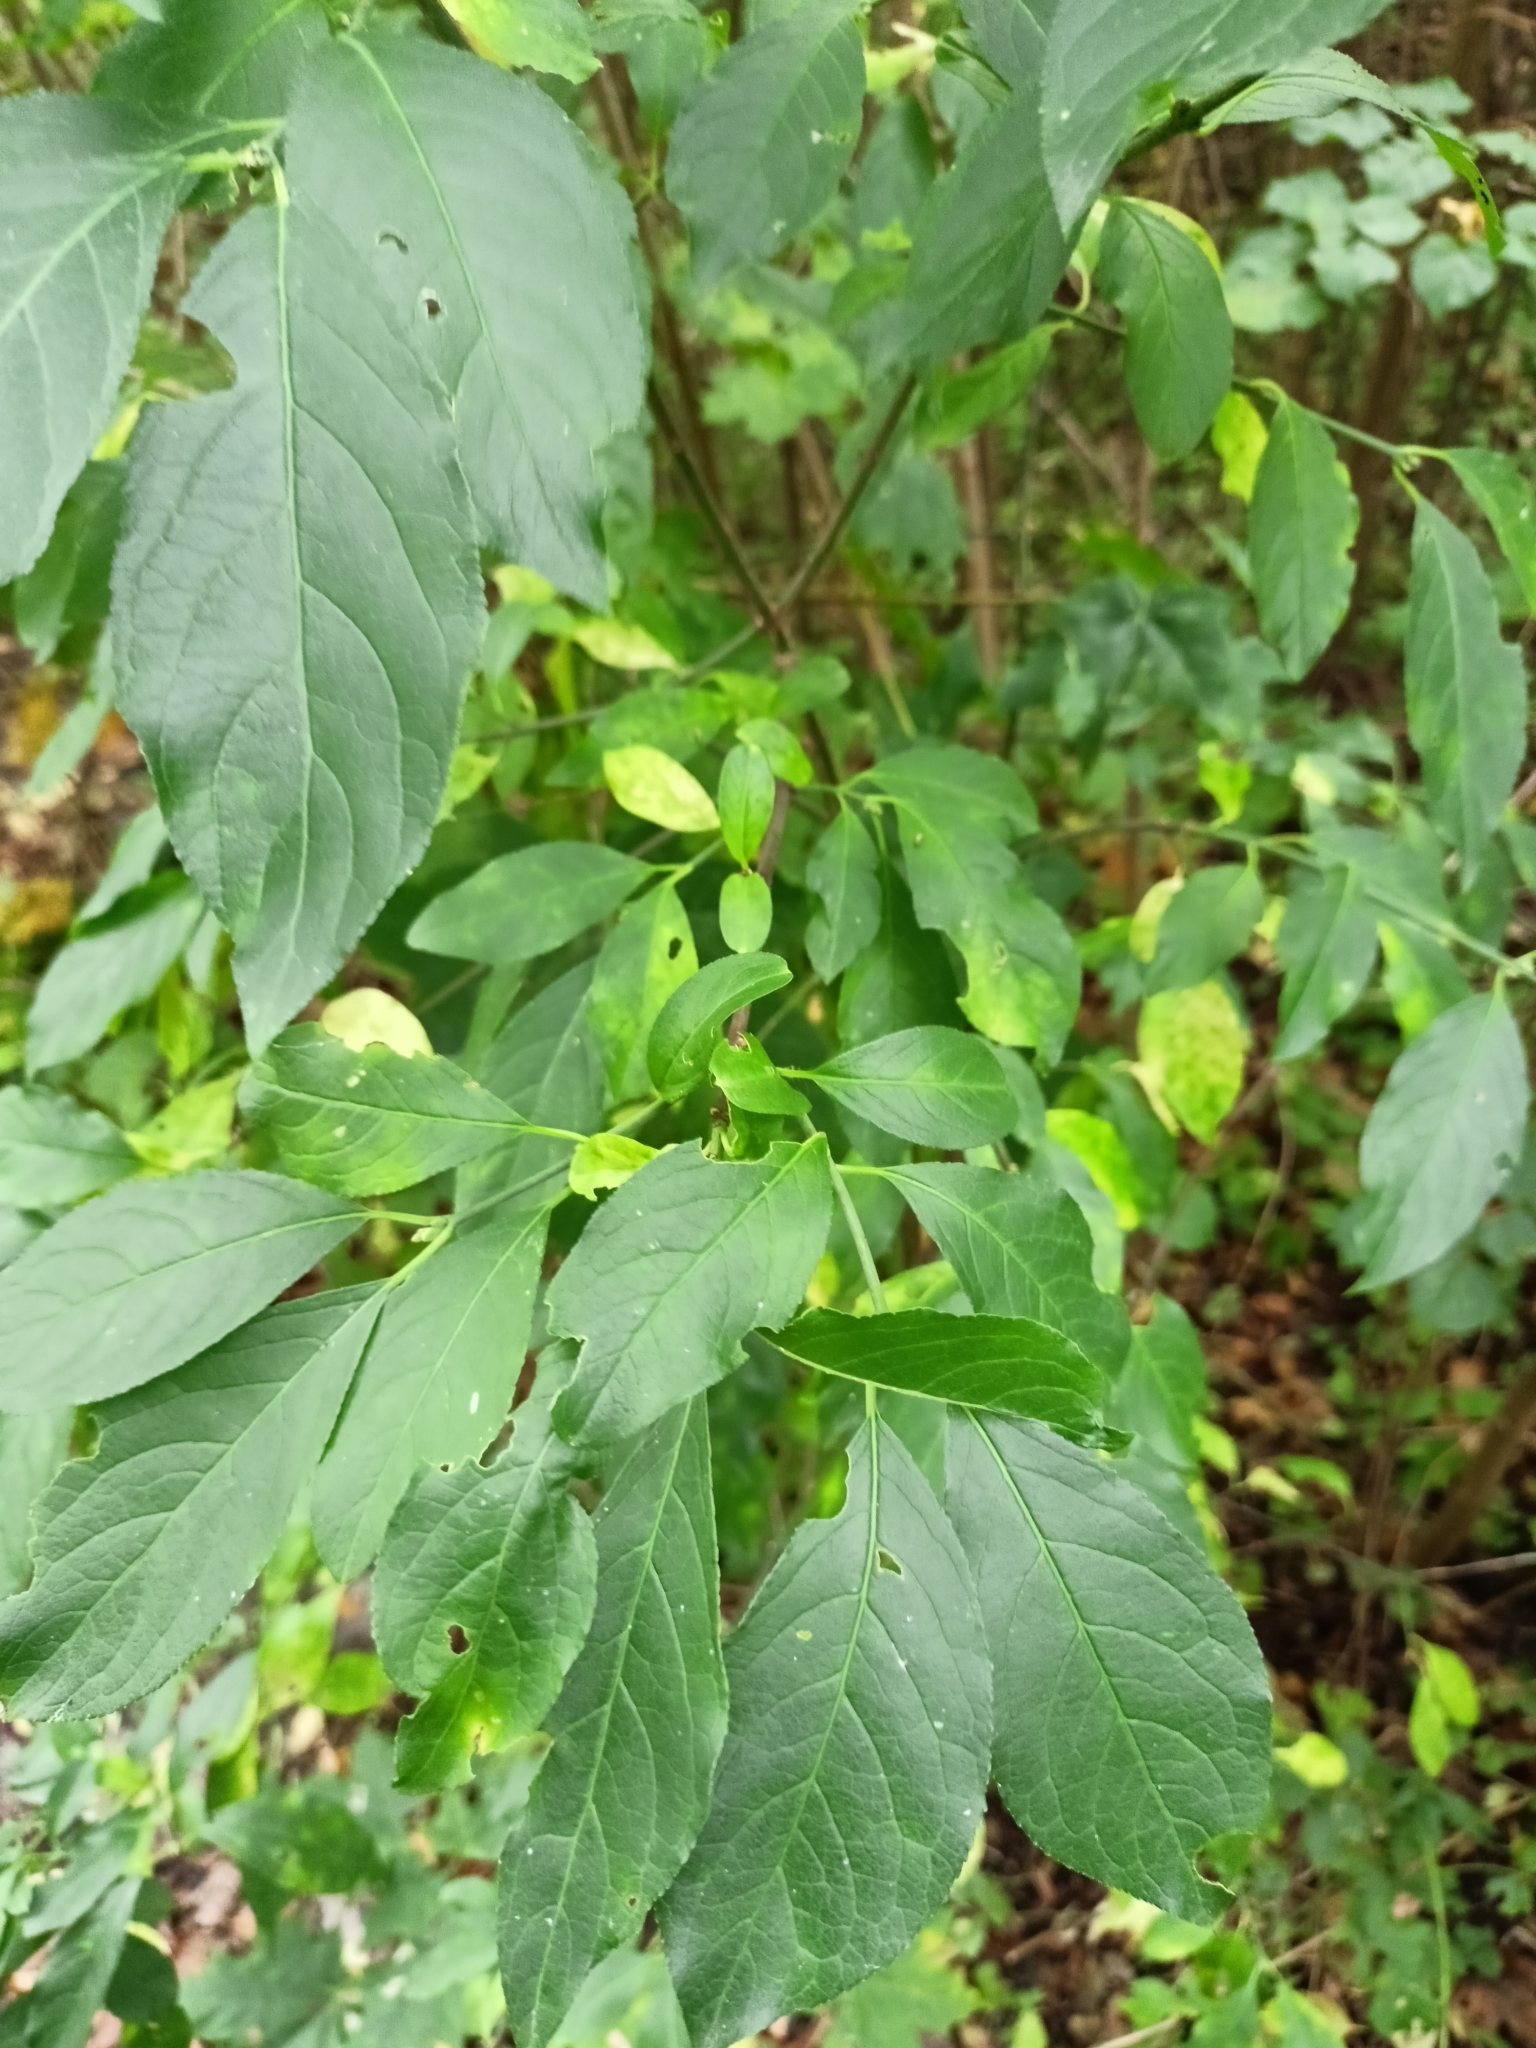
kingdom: Plantae
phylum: Tracheophyta
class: Magnoliopsida
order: Celastrales
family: Celastraceae
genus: Euonymus
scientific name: Euonymus europaeus
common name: Spindle
